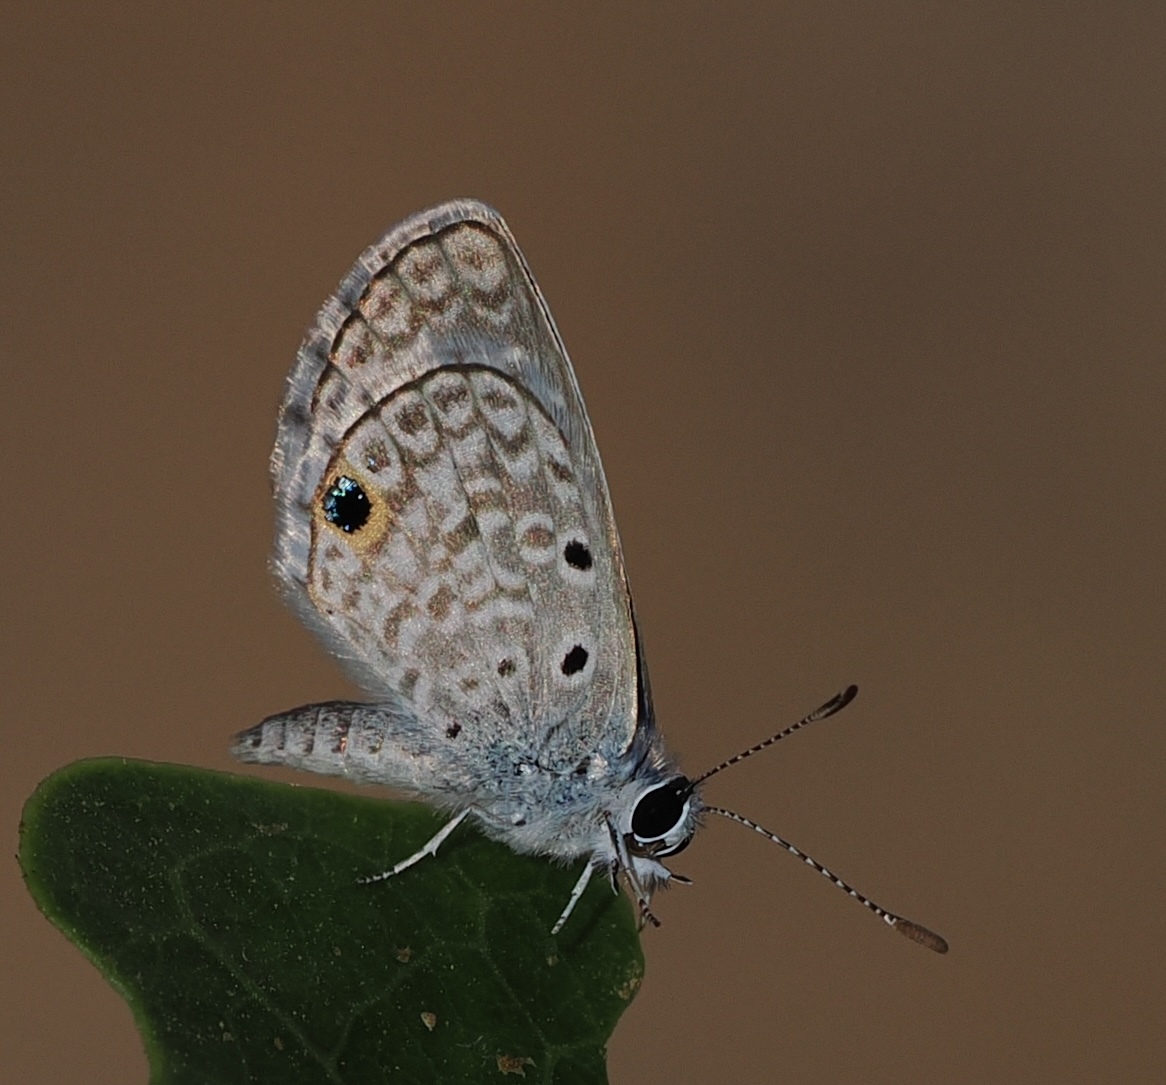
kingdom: Animalia
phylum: Arthropoda
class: Insecta
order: Lepidoptera
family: Lycaenidae
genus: Hemiargus
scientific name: Hemiargus hanno
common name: Common blue
